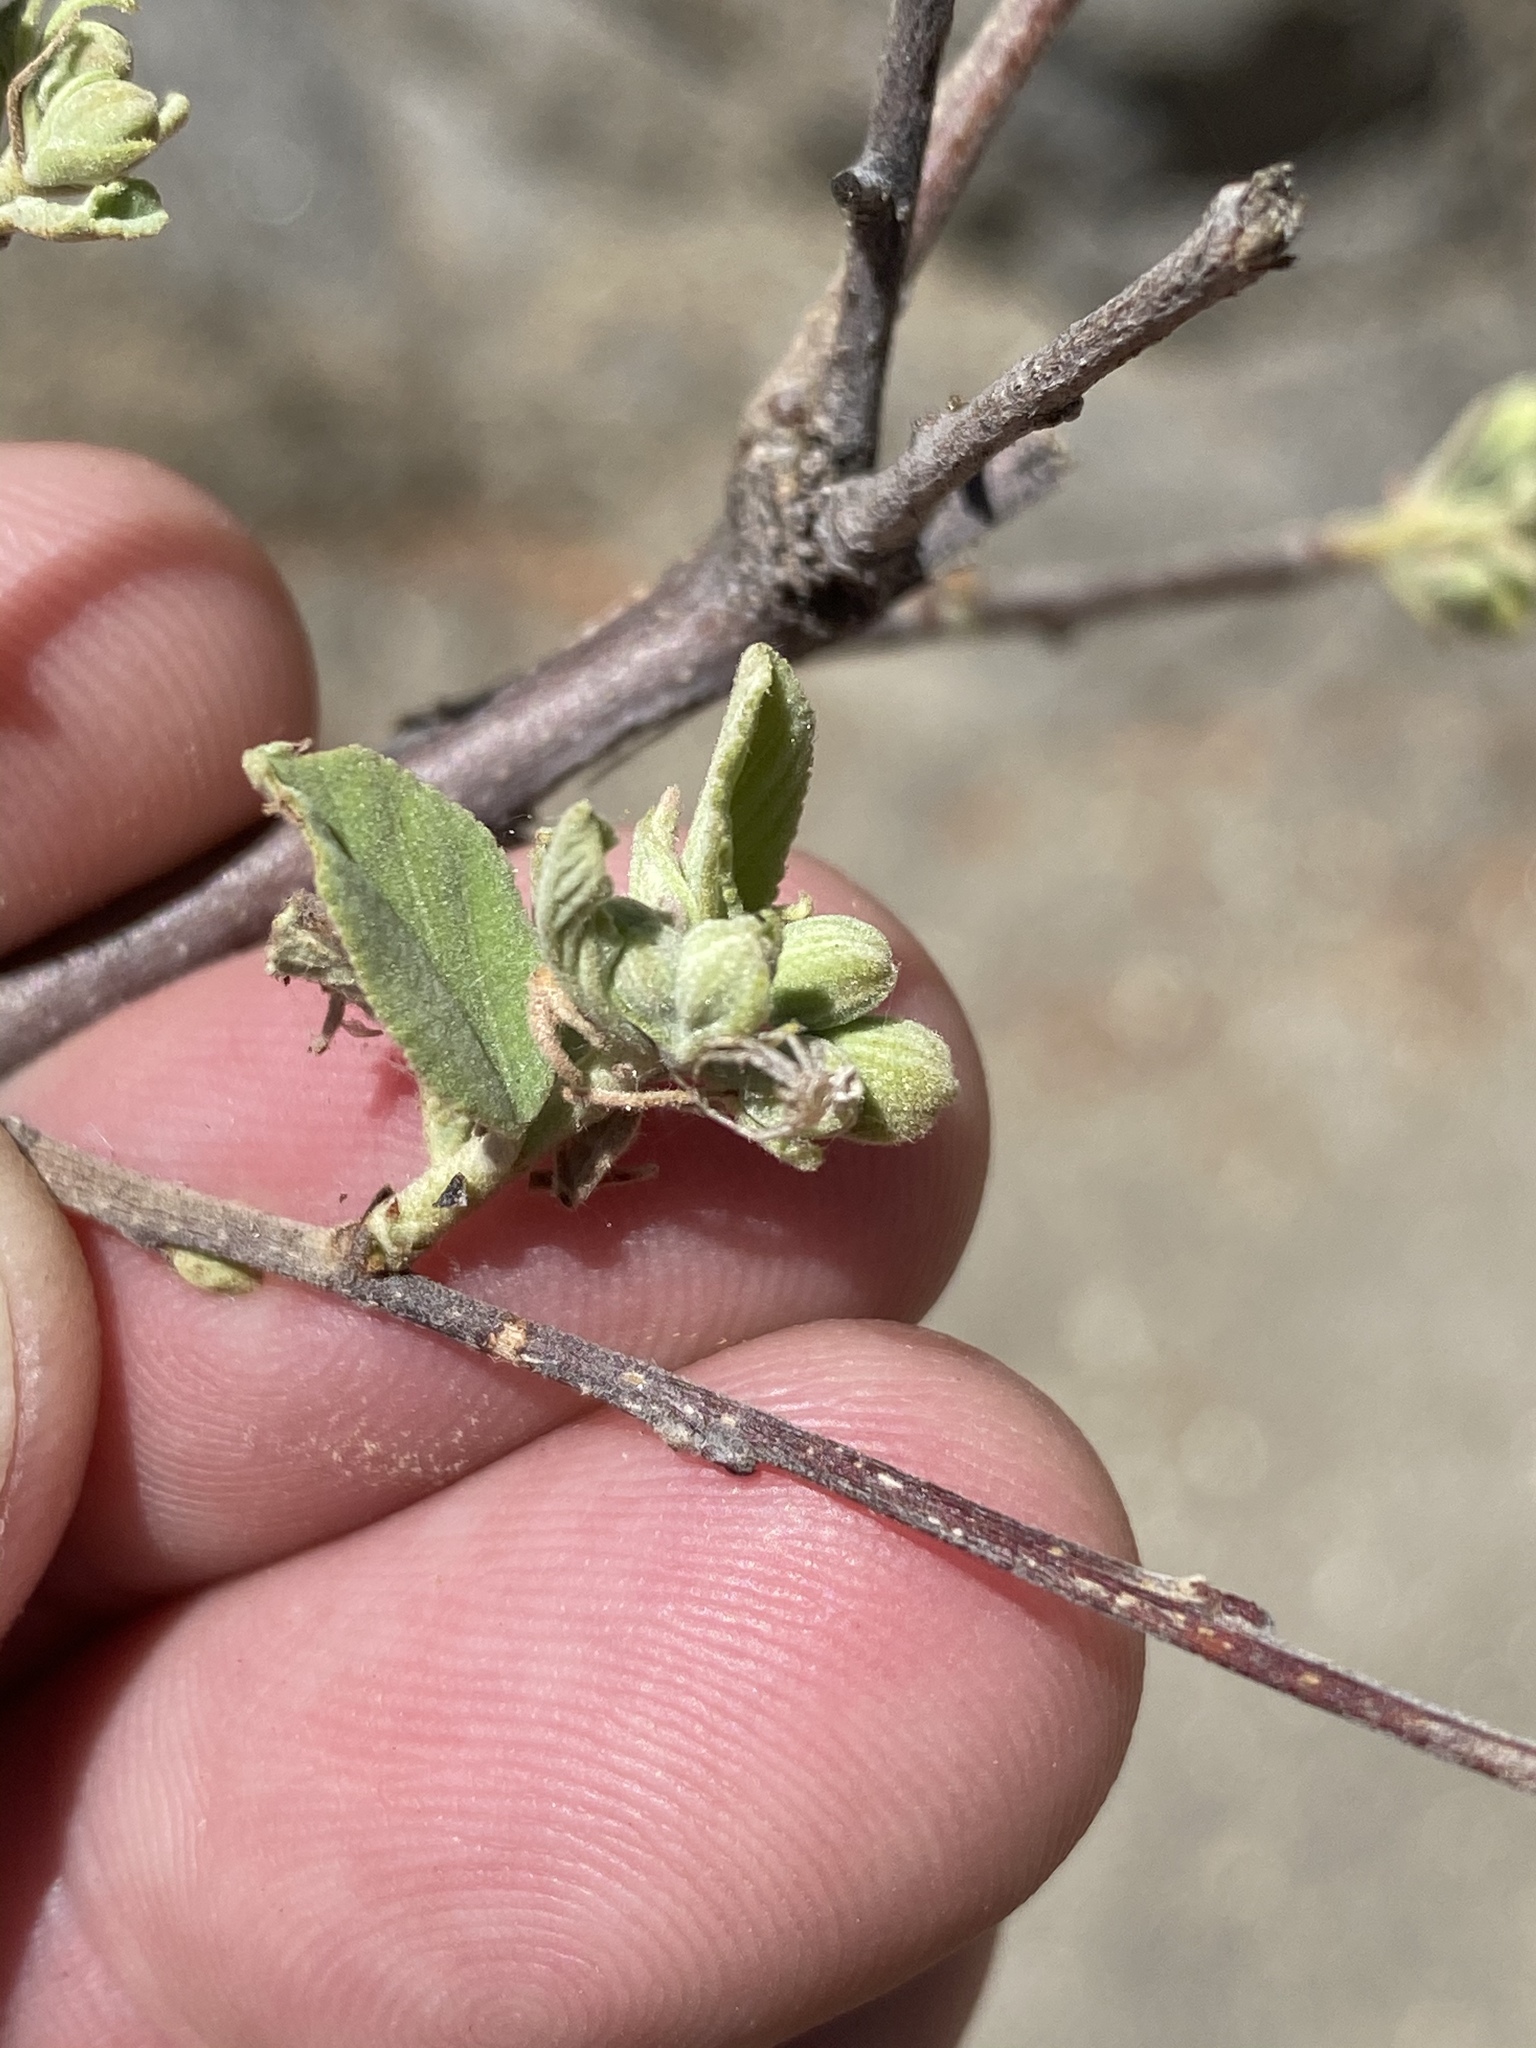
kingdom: Plantae
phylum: Tracheophyta
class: Magnoliopsida
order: Malvales
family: Malvaceae
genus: Grewia
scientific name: Grewia flava
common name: Brandy bush
